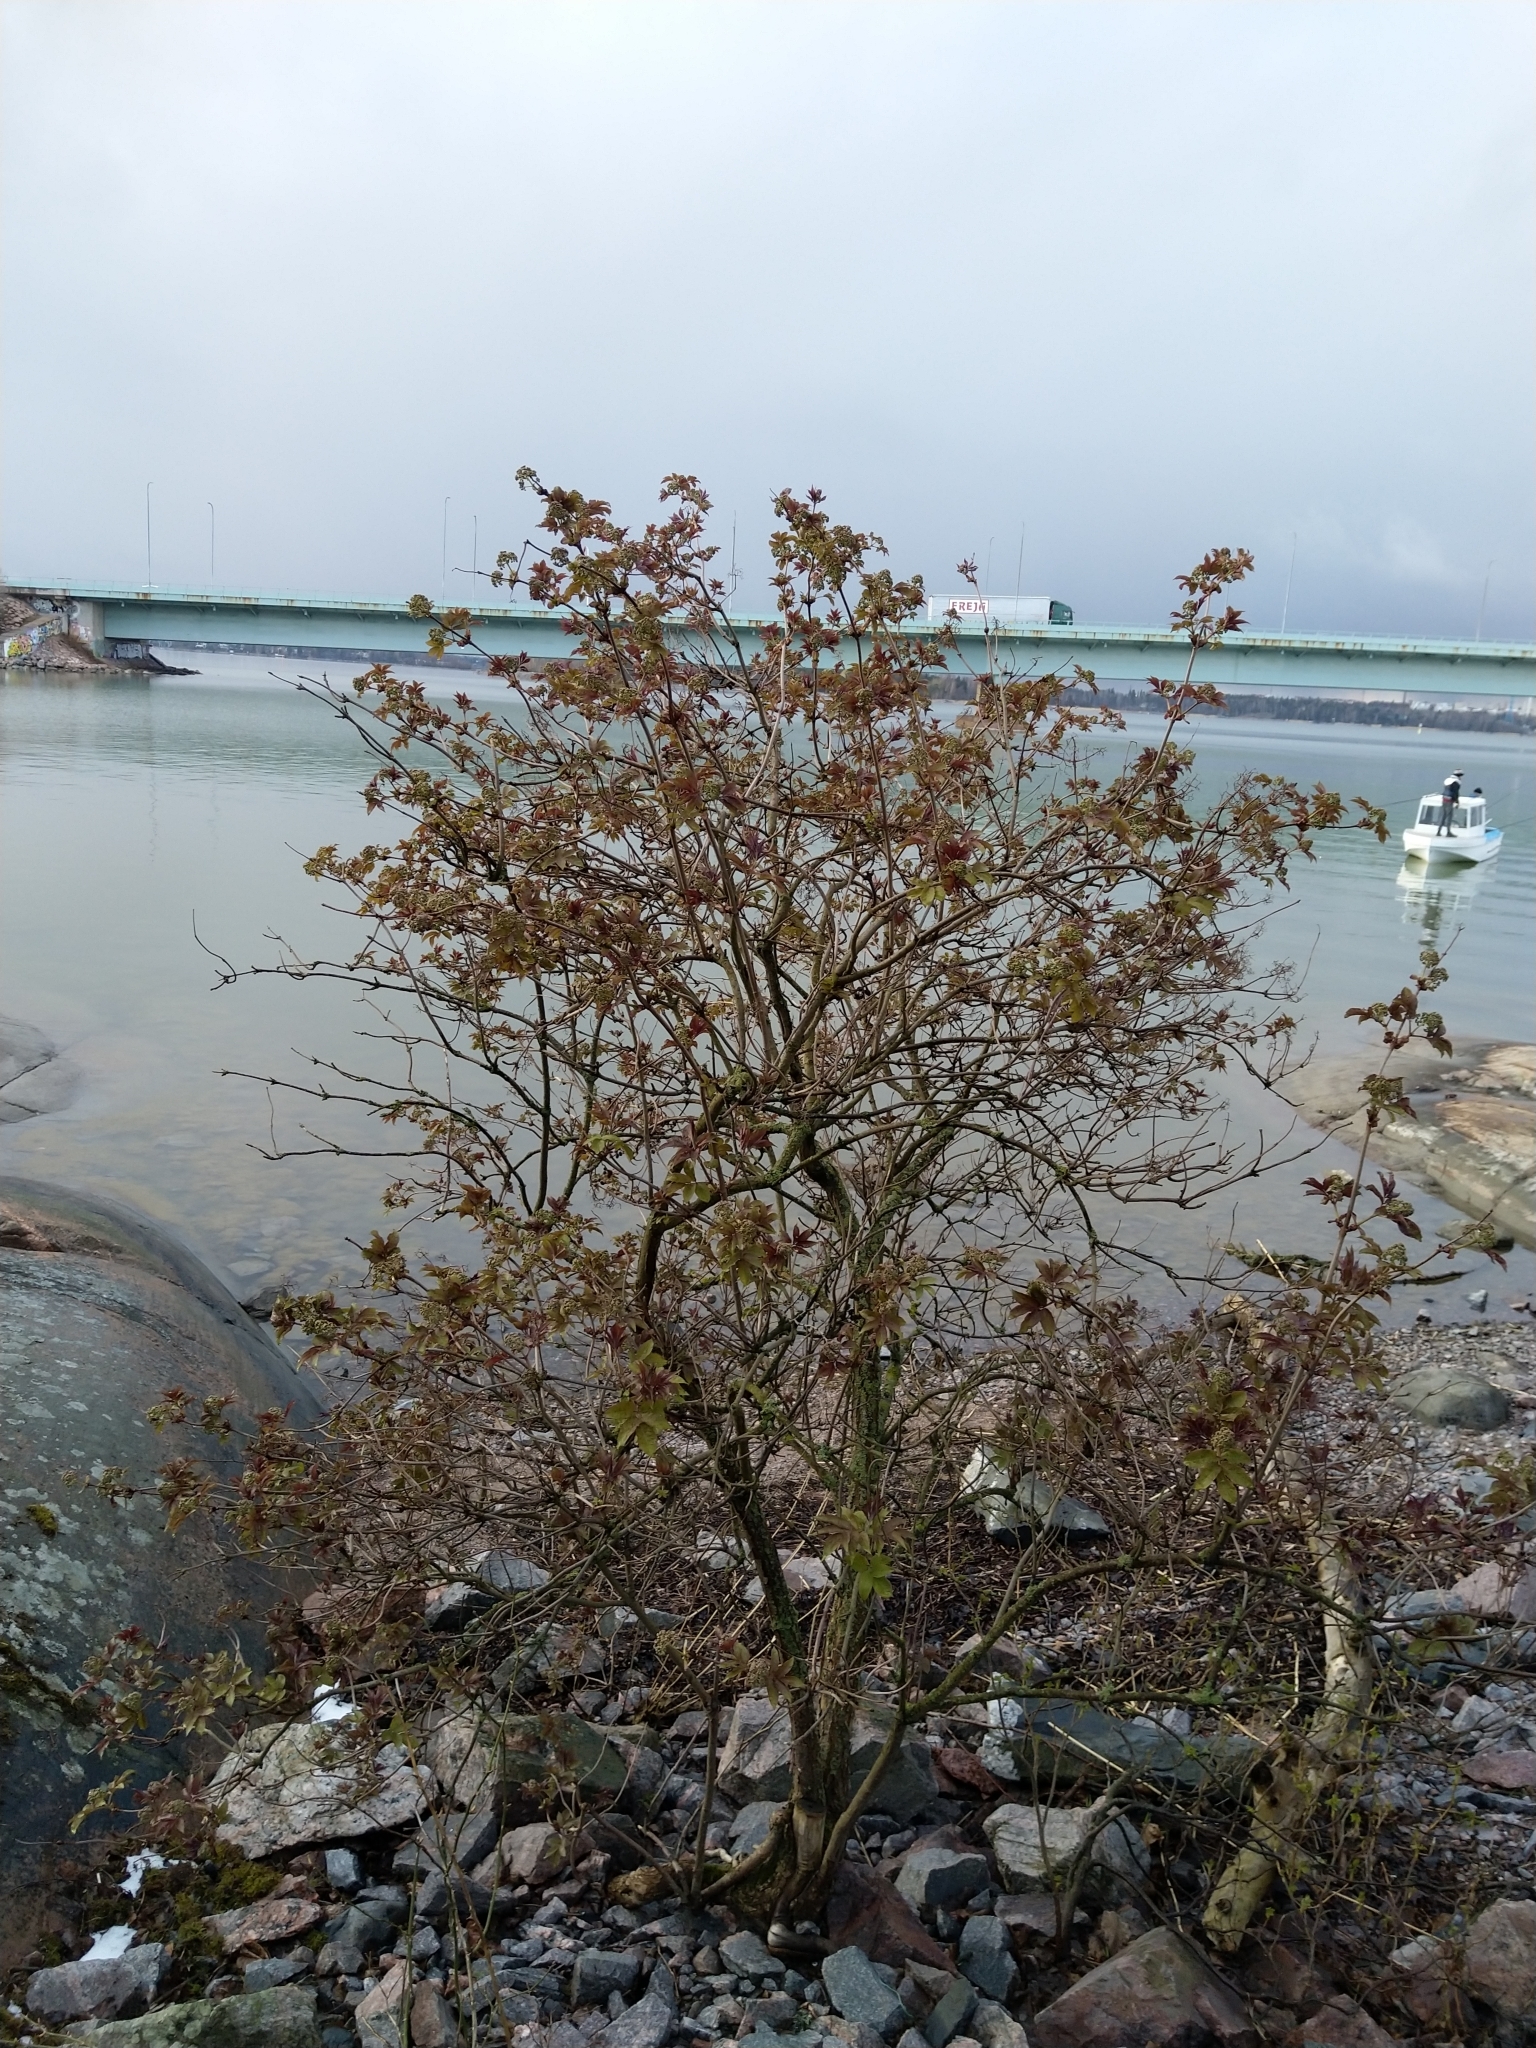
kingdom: Plantae
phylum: Tracheophyta
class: Magnoliopsida
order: Dipsacales
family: Viburnaceae
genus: Sambucus
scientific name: Sambucus racemosa
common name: Red-berried elder
